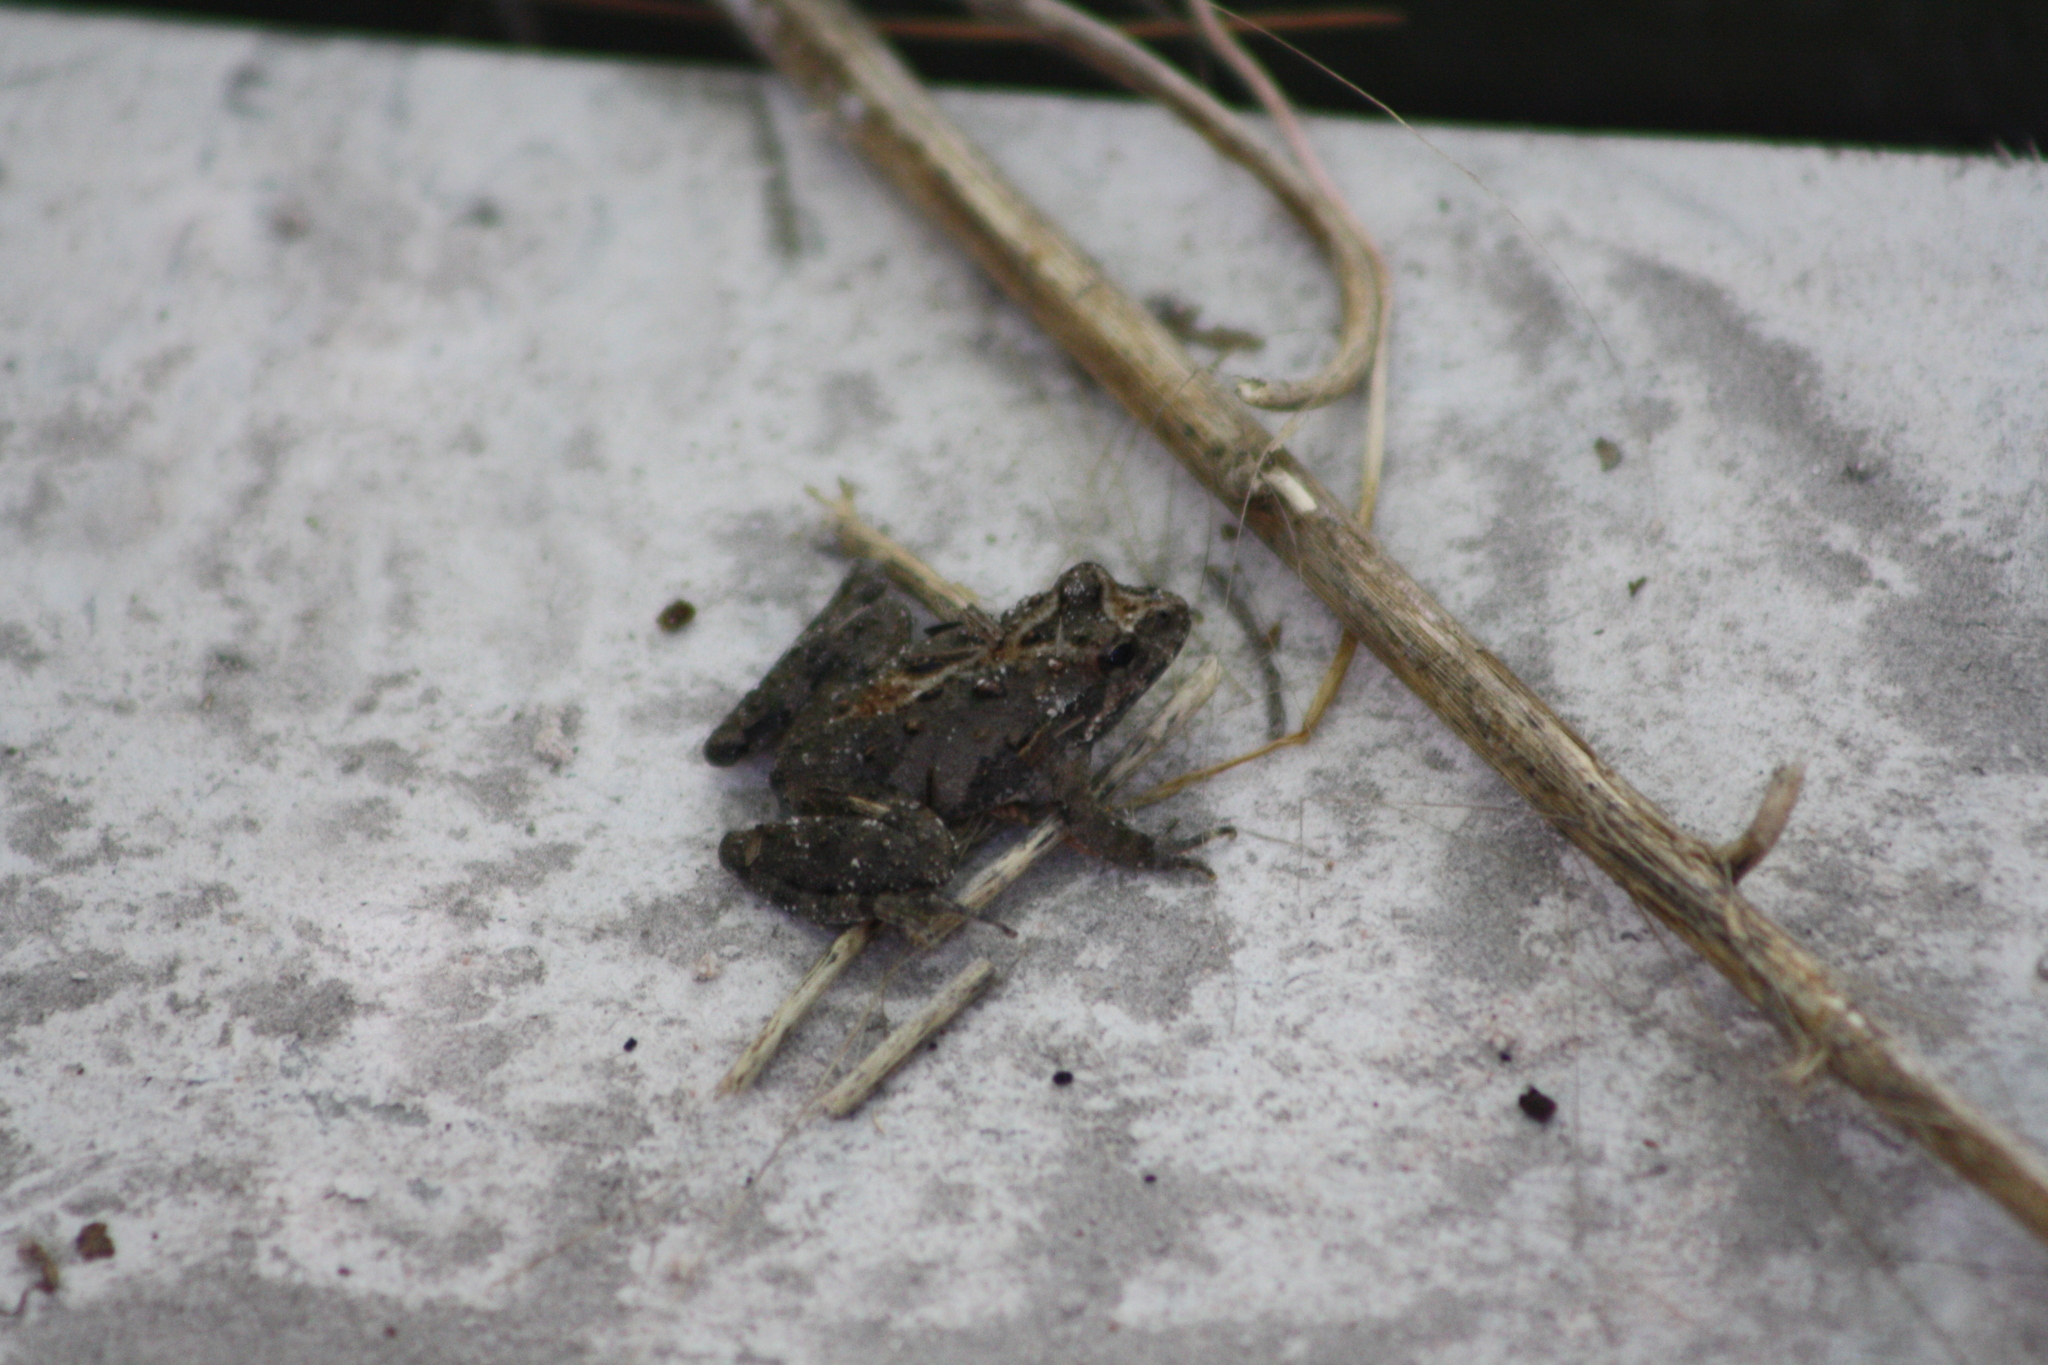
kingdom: Animalia
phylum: Chordata
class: Amphibia
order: Anura
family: Hylidae
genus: Acris
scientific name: Acris blanchardi
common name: Blanchard's cricket frog
